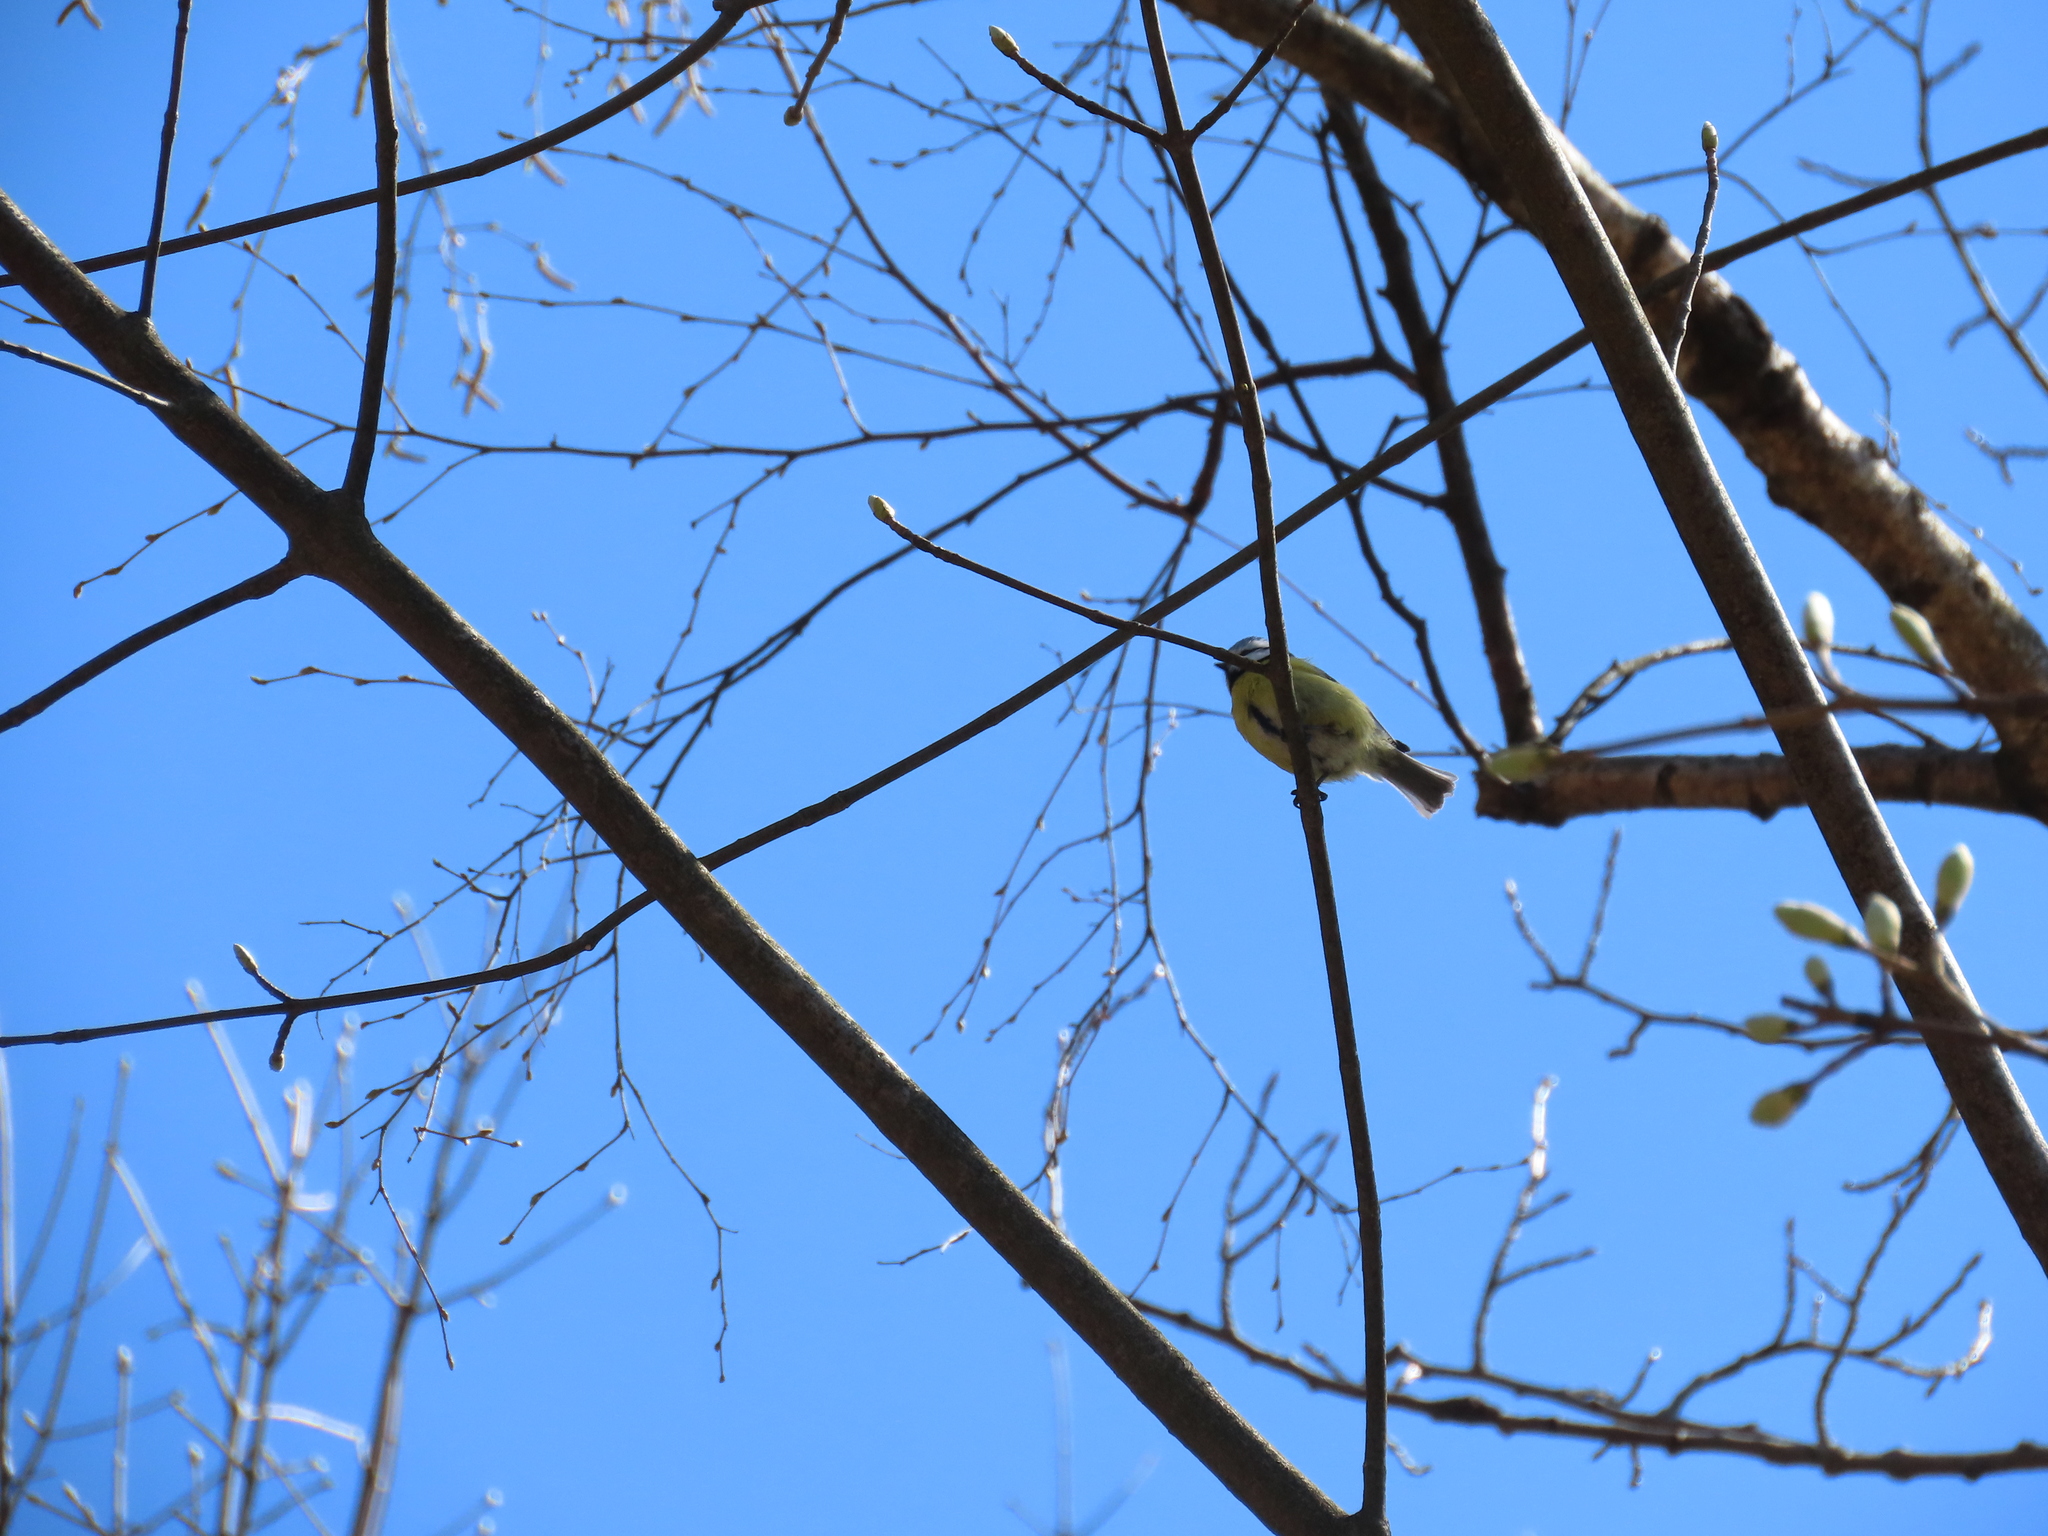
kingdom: Animalia
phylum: Chordata
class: Aves
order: Passeriformes
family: Paridae
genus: Cyanistes
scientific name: Cyanistes caeruleus
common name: Eurasian blue tit
